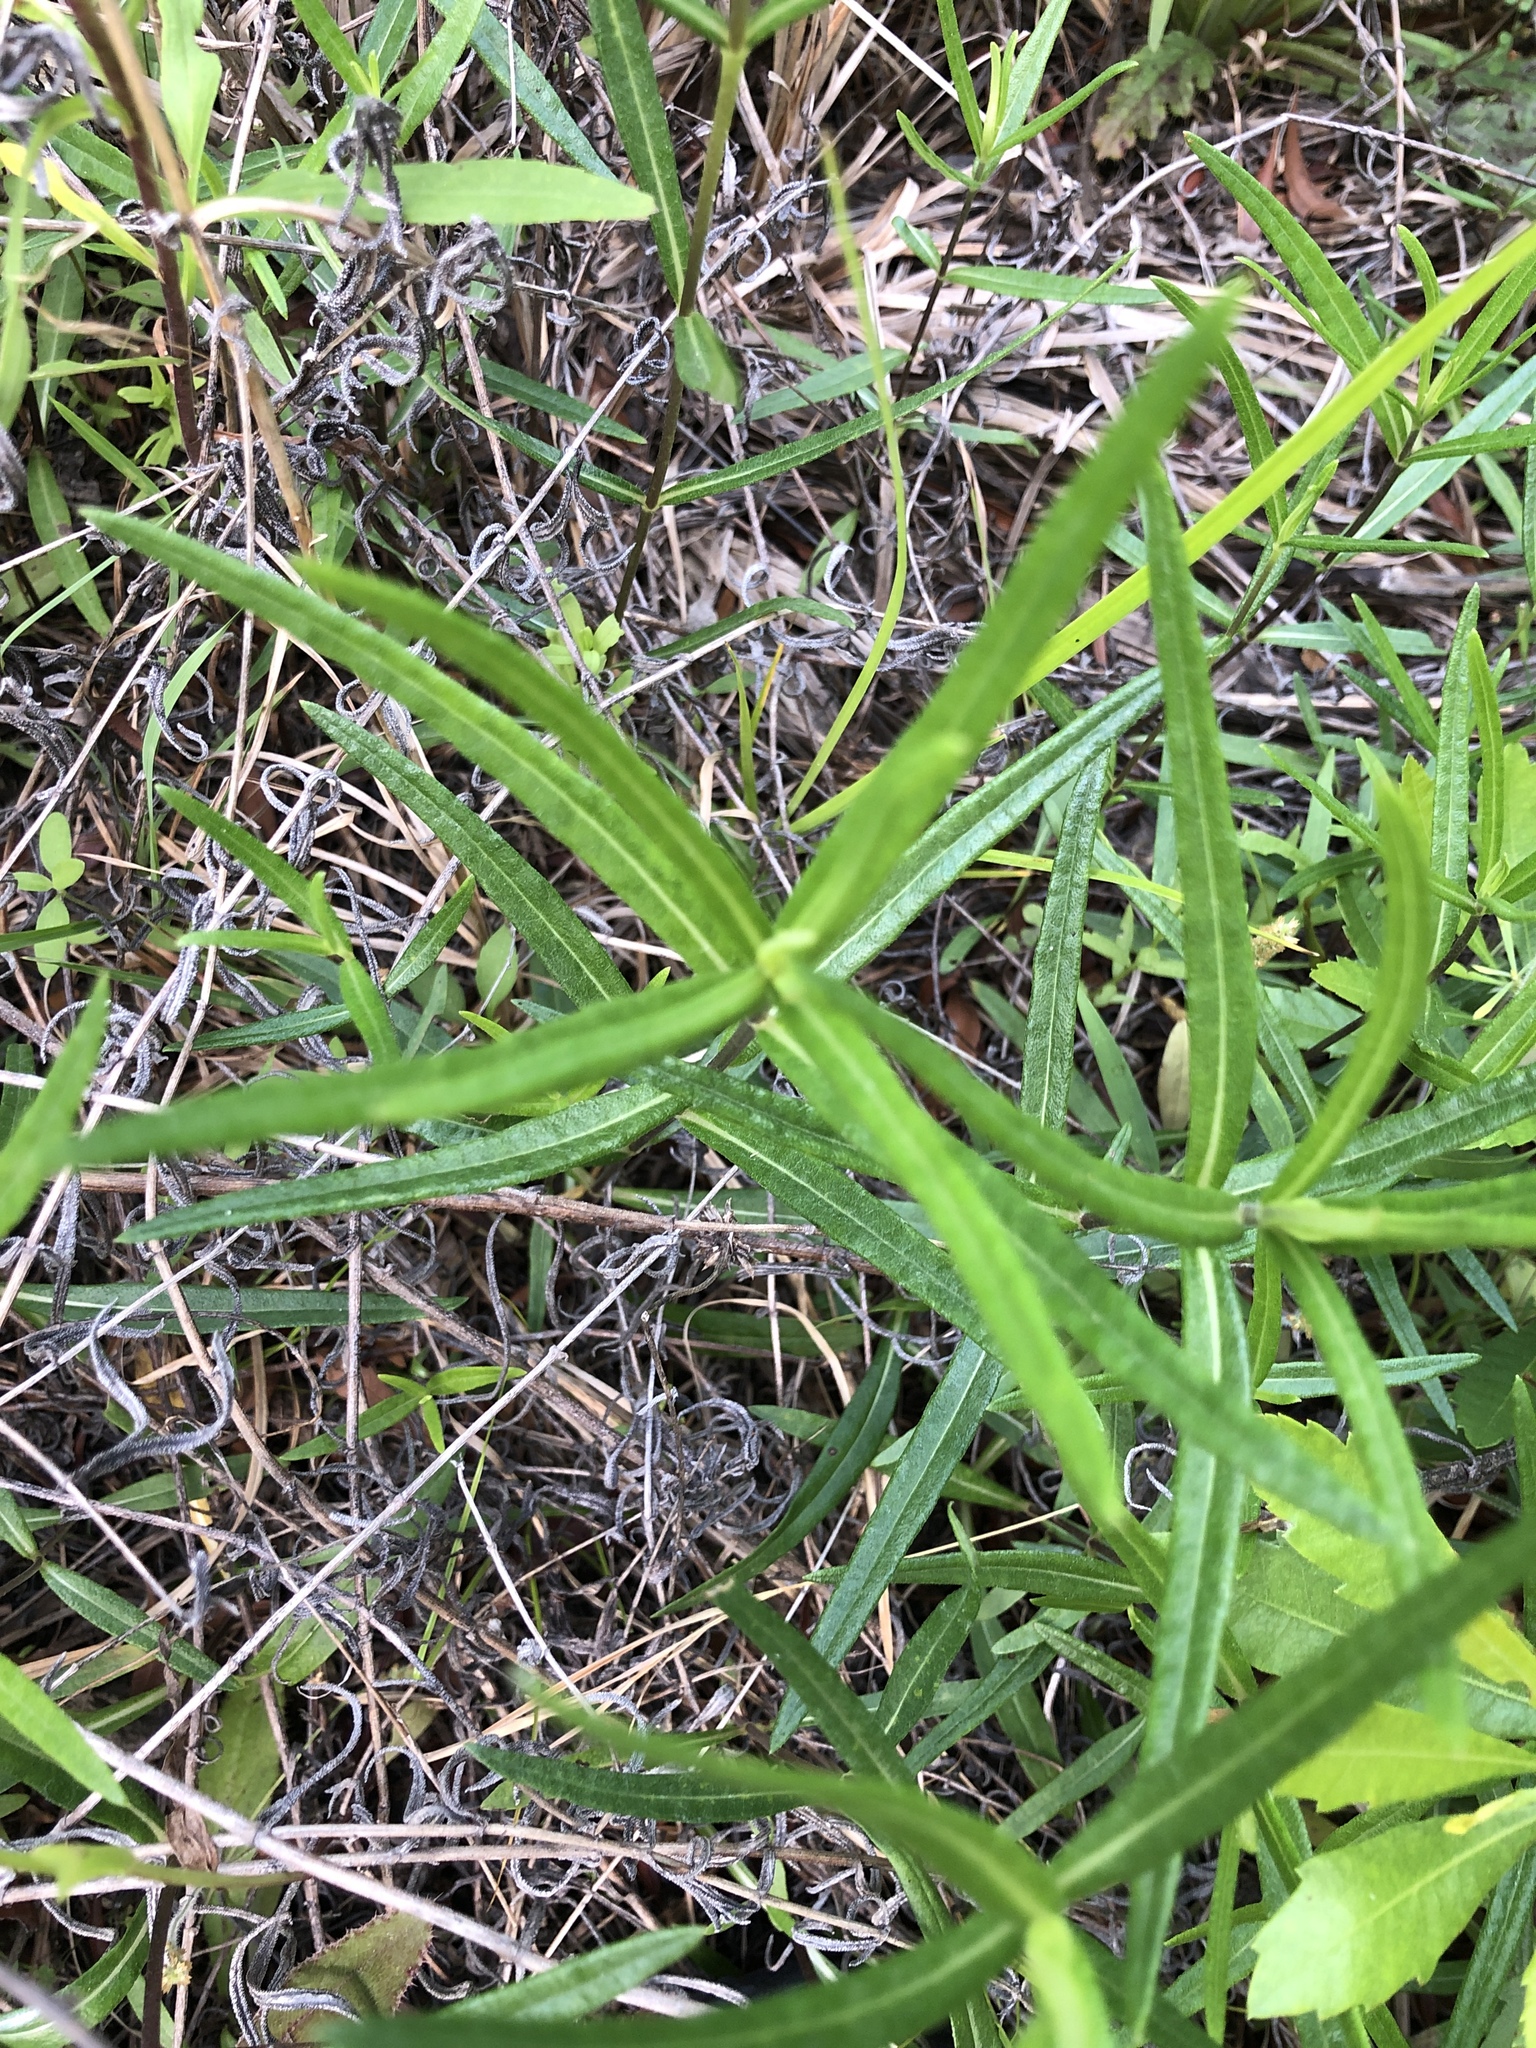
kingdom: Plantae
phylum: Tracheophyta
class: Magnoliopsida
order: Asterales
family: Asteraceae
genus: Helianthus
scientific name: Helianthus angustifolius
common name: Swamp sunflower
